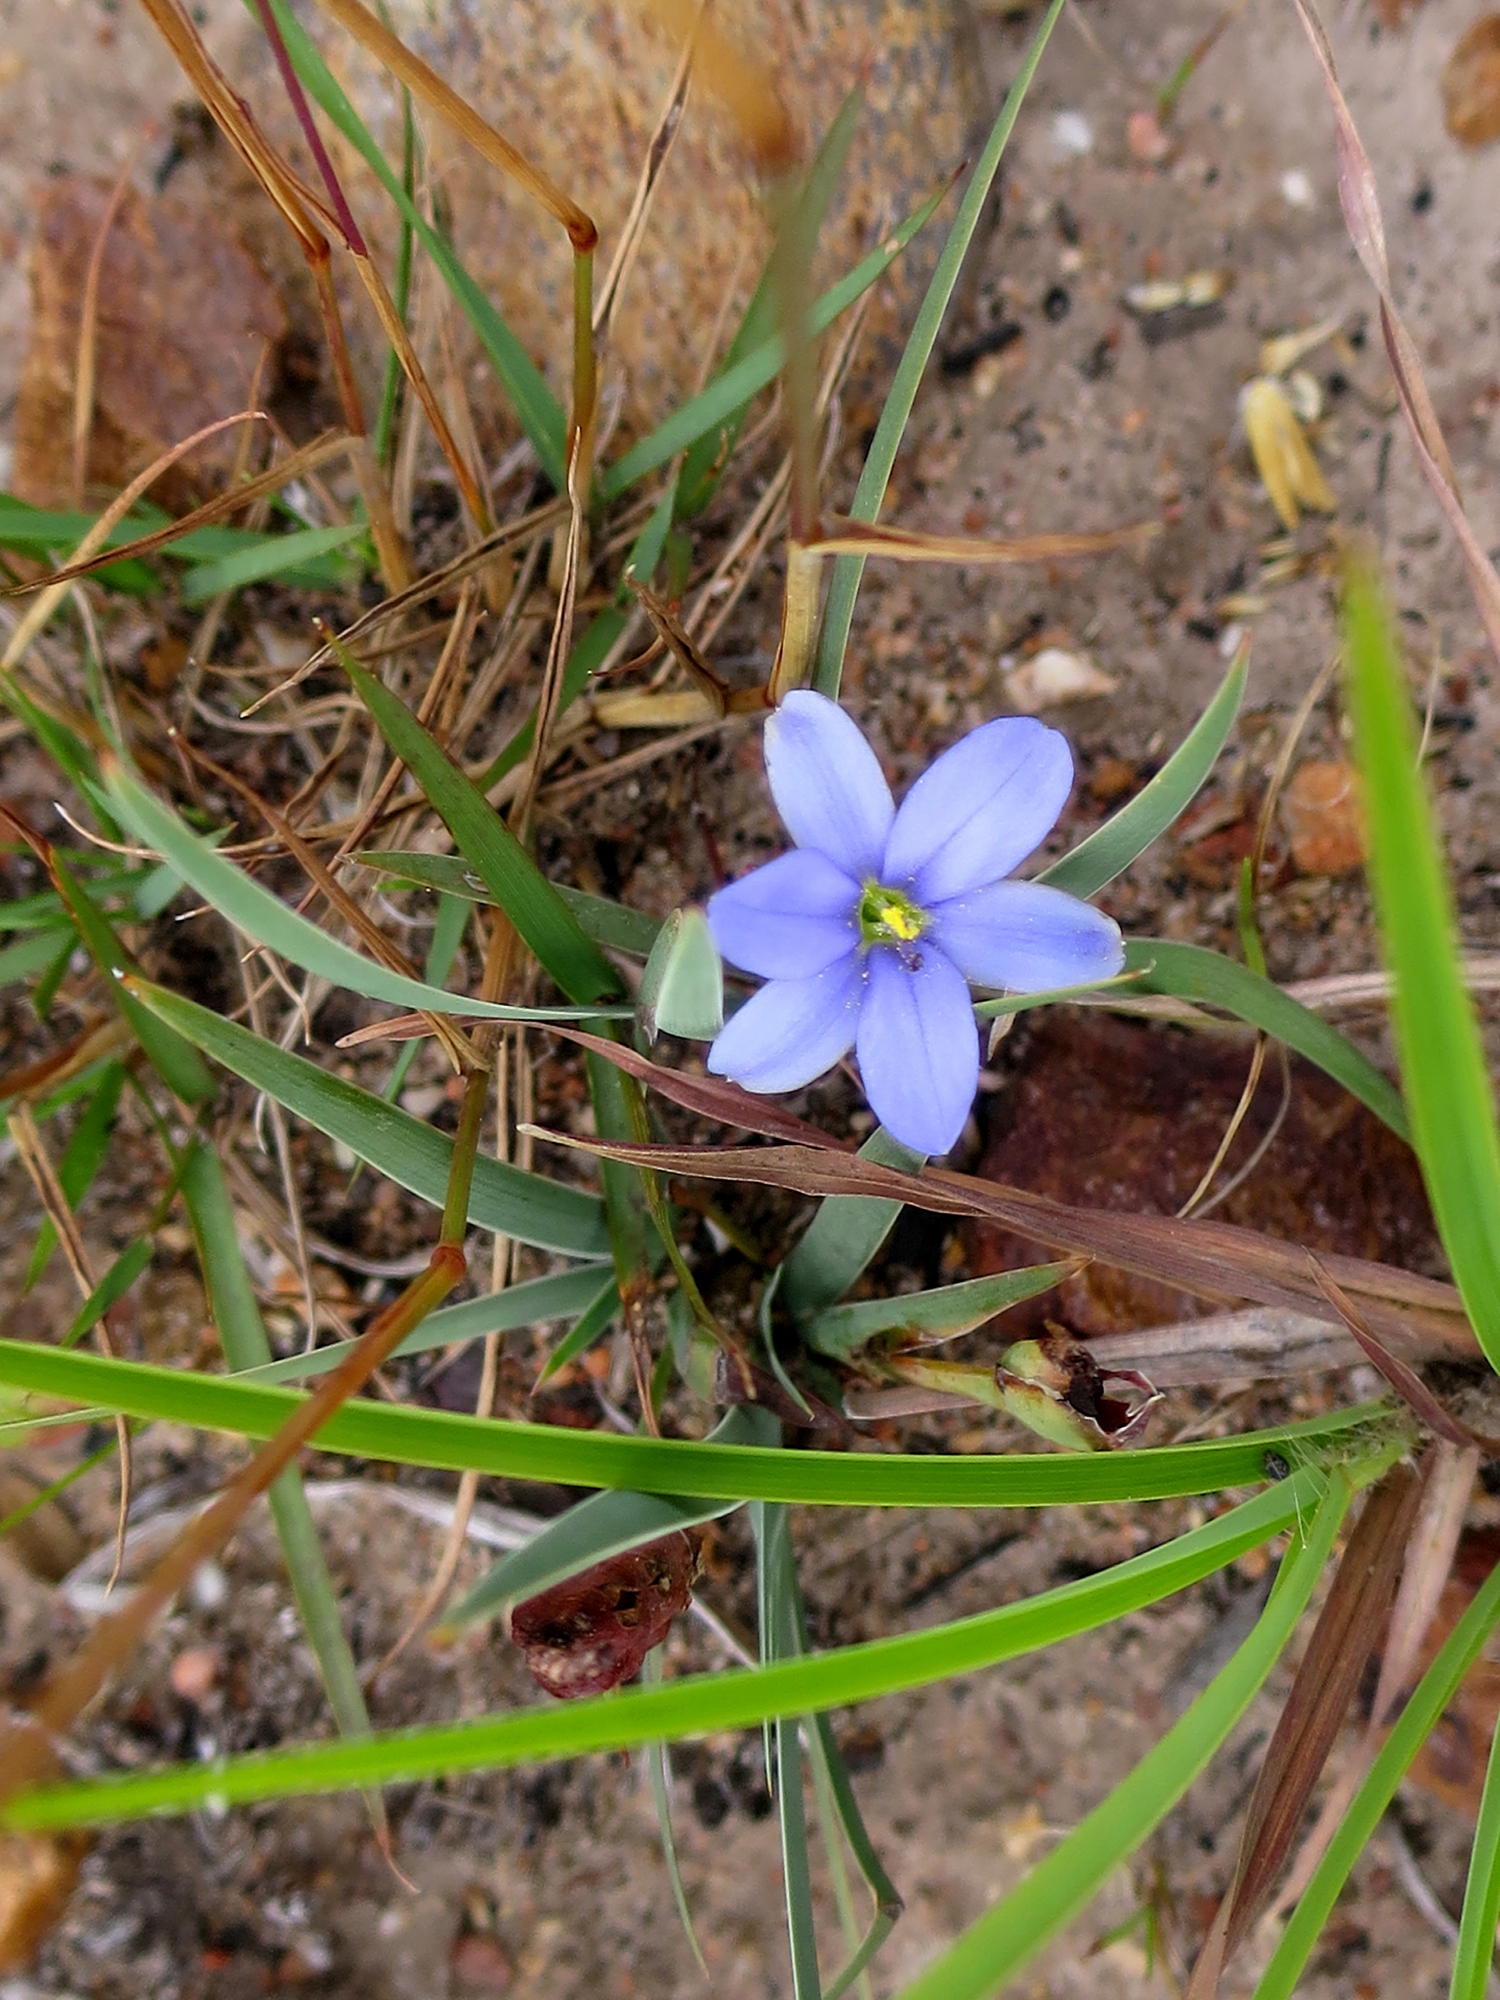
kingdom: Plantae
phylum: Tracheophyta
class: Liliopsida
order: Asparagales
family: Iridaceae
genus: Aristea
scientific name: Aristea nana
